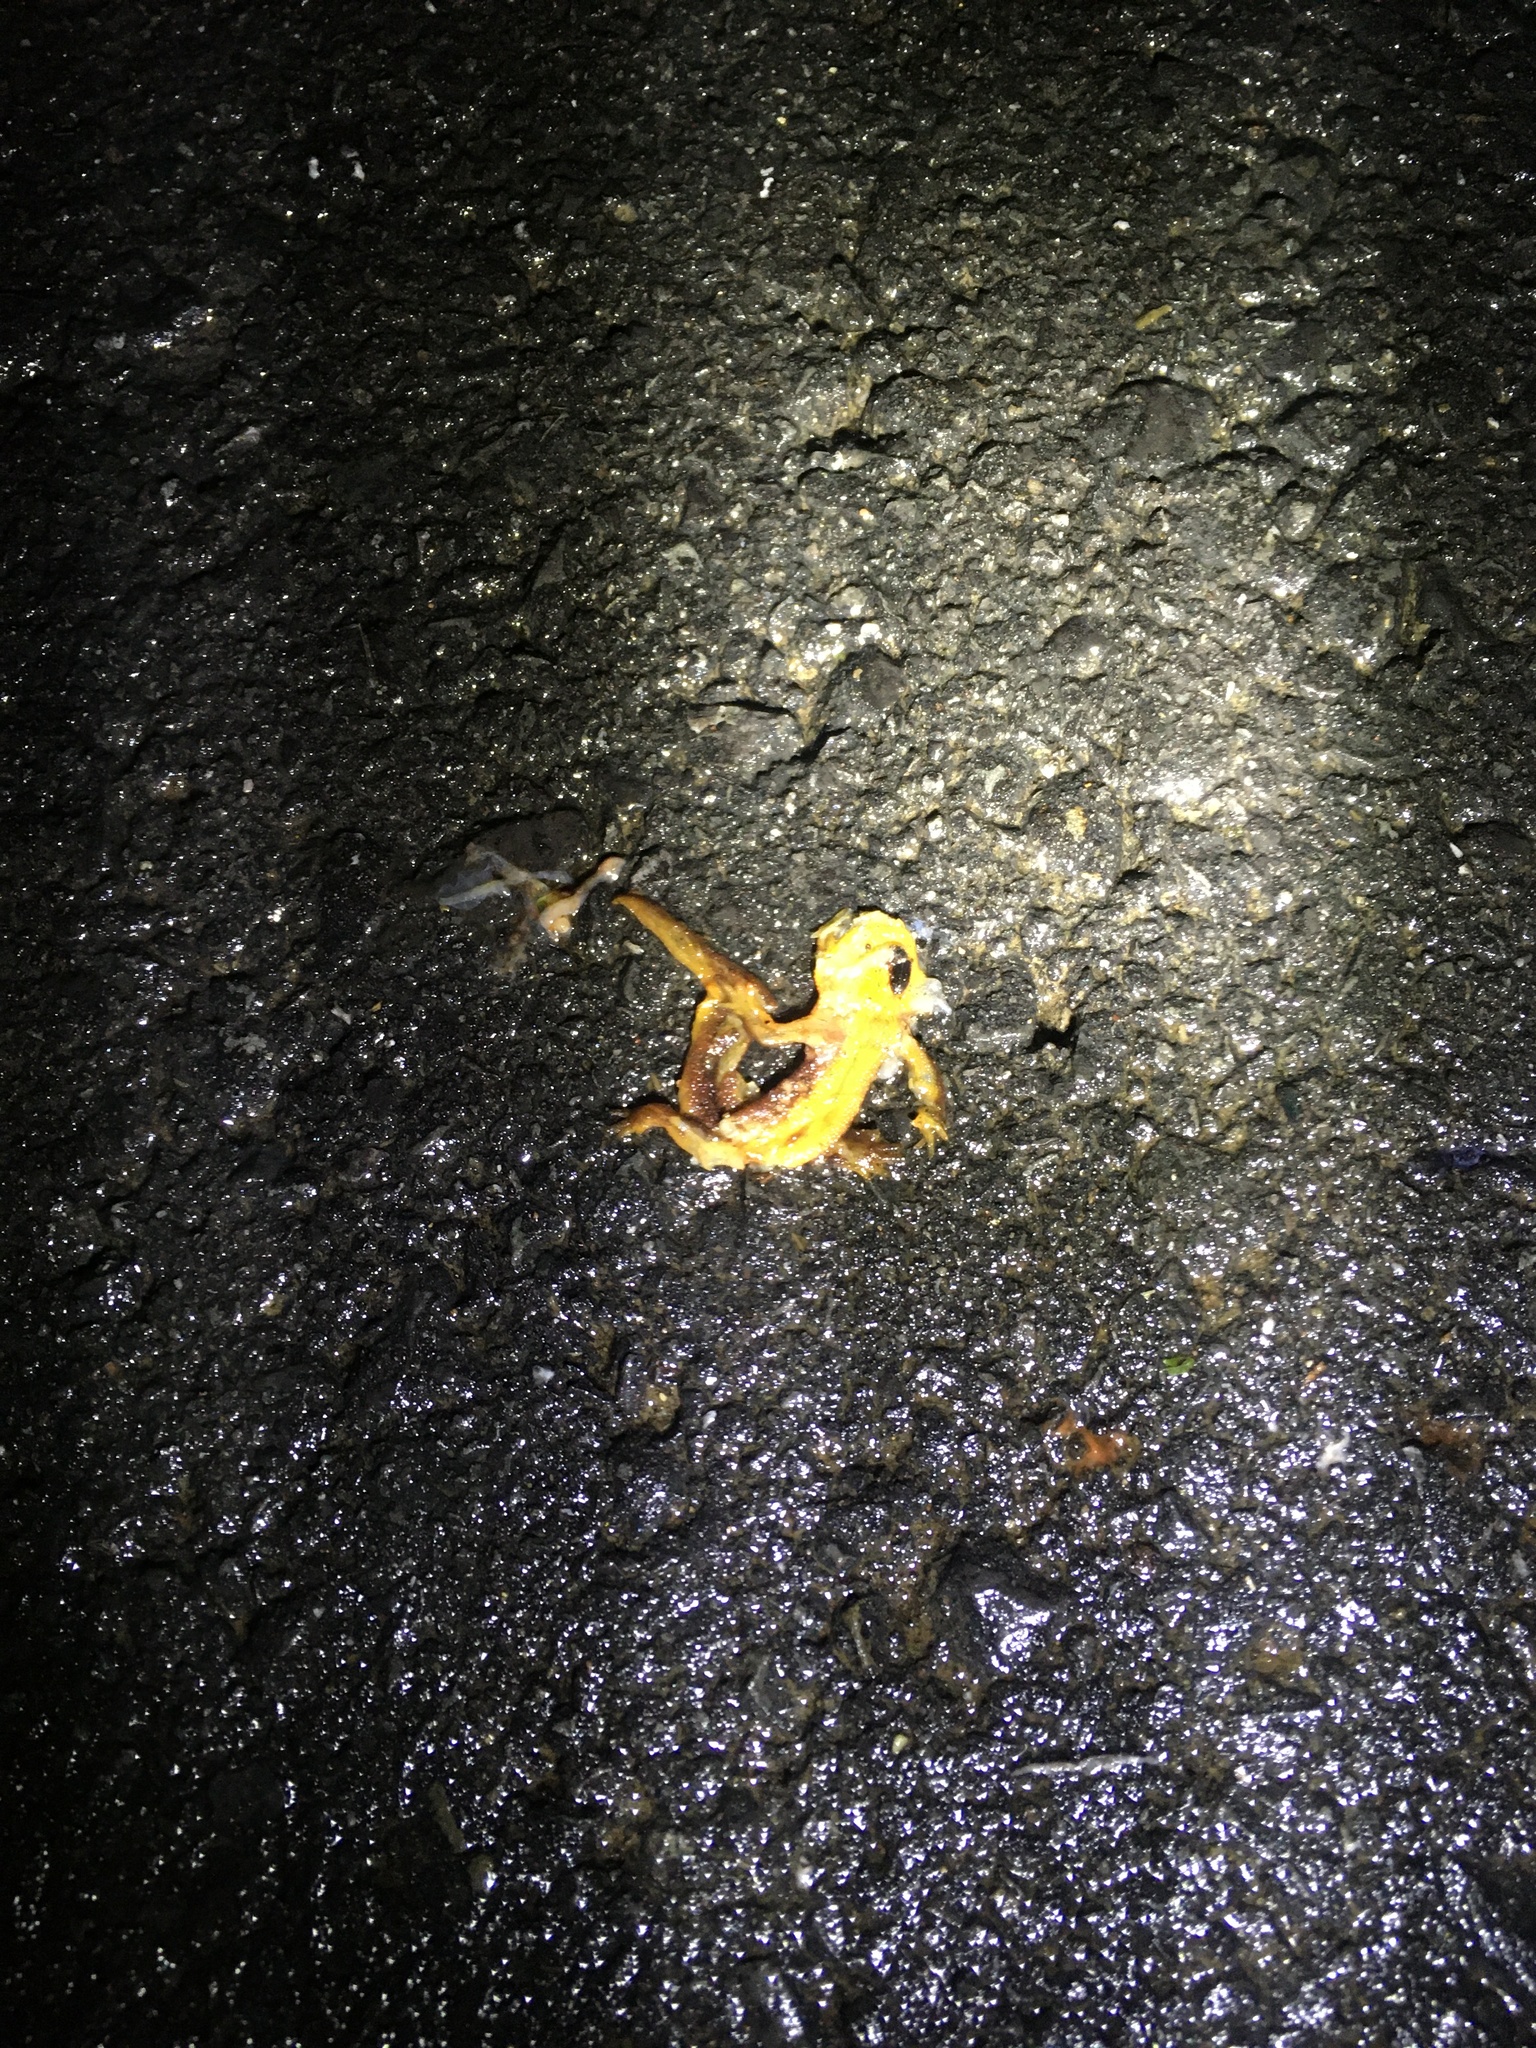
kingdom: Animalia
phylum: Chordata
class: Amphibia
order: Caudata
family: Salamandridae
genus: Taricha
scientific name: Taricha
